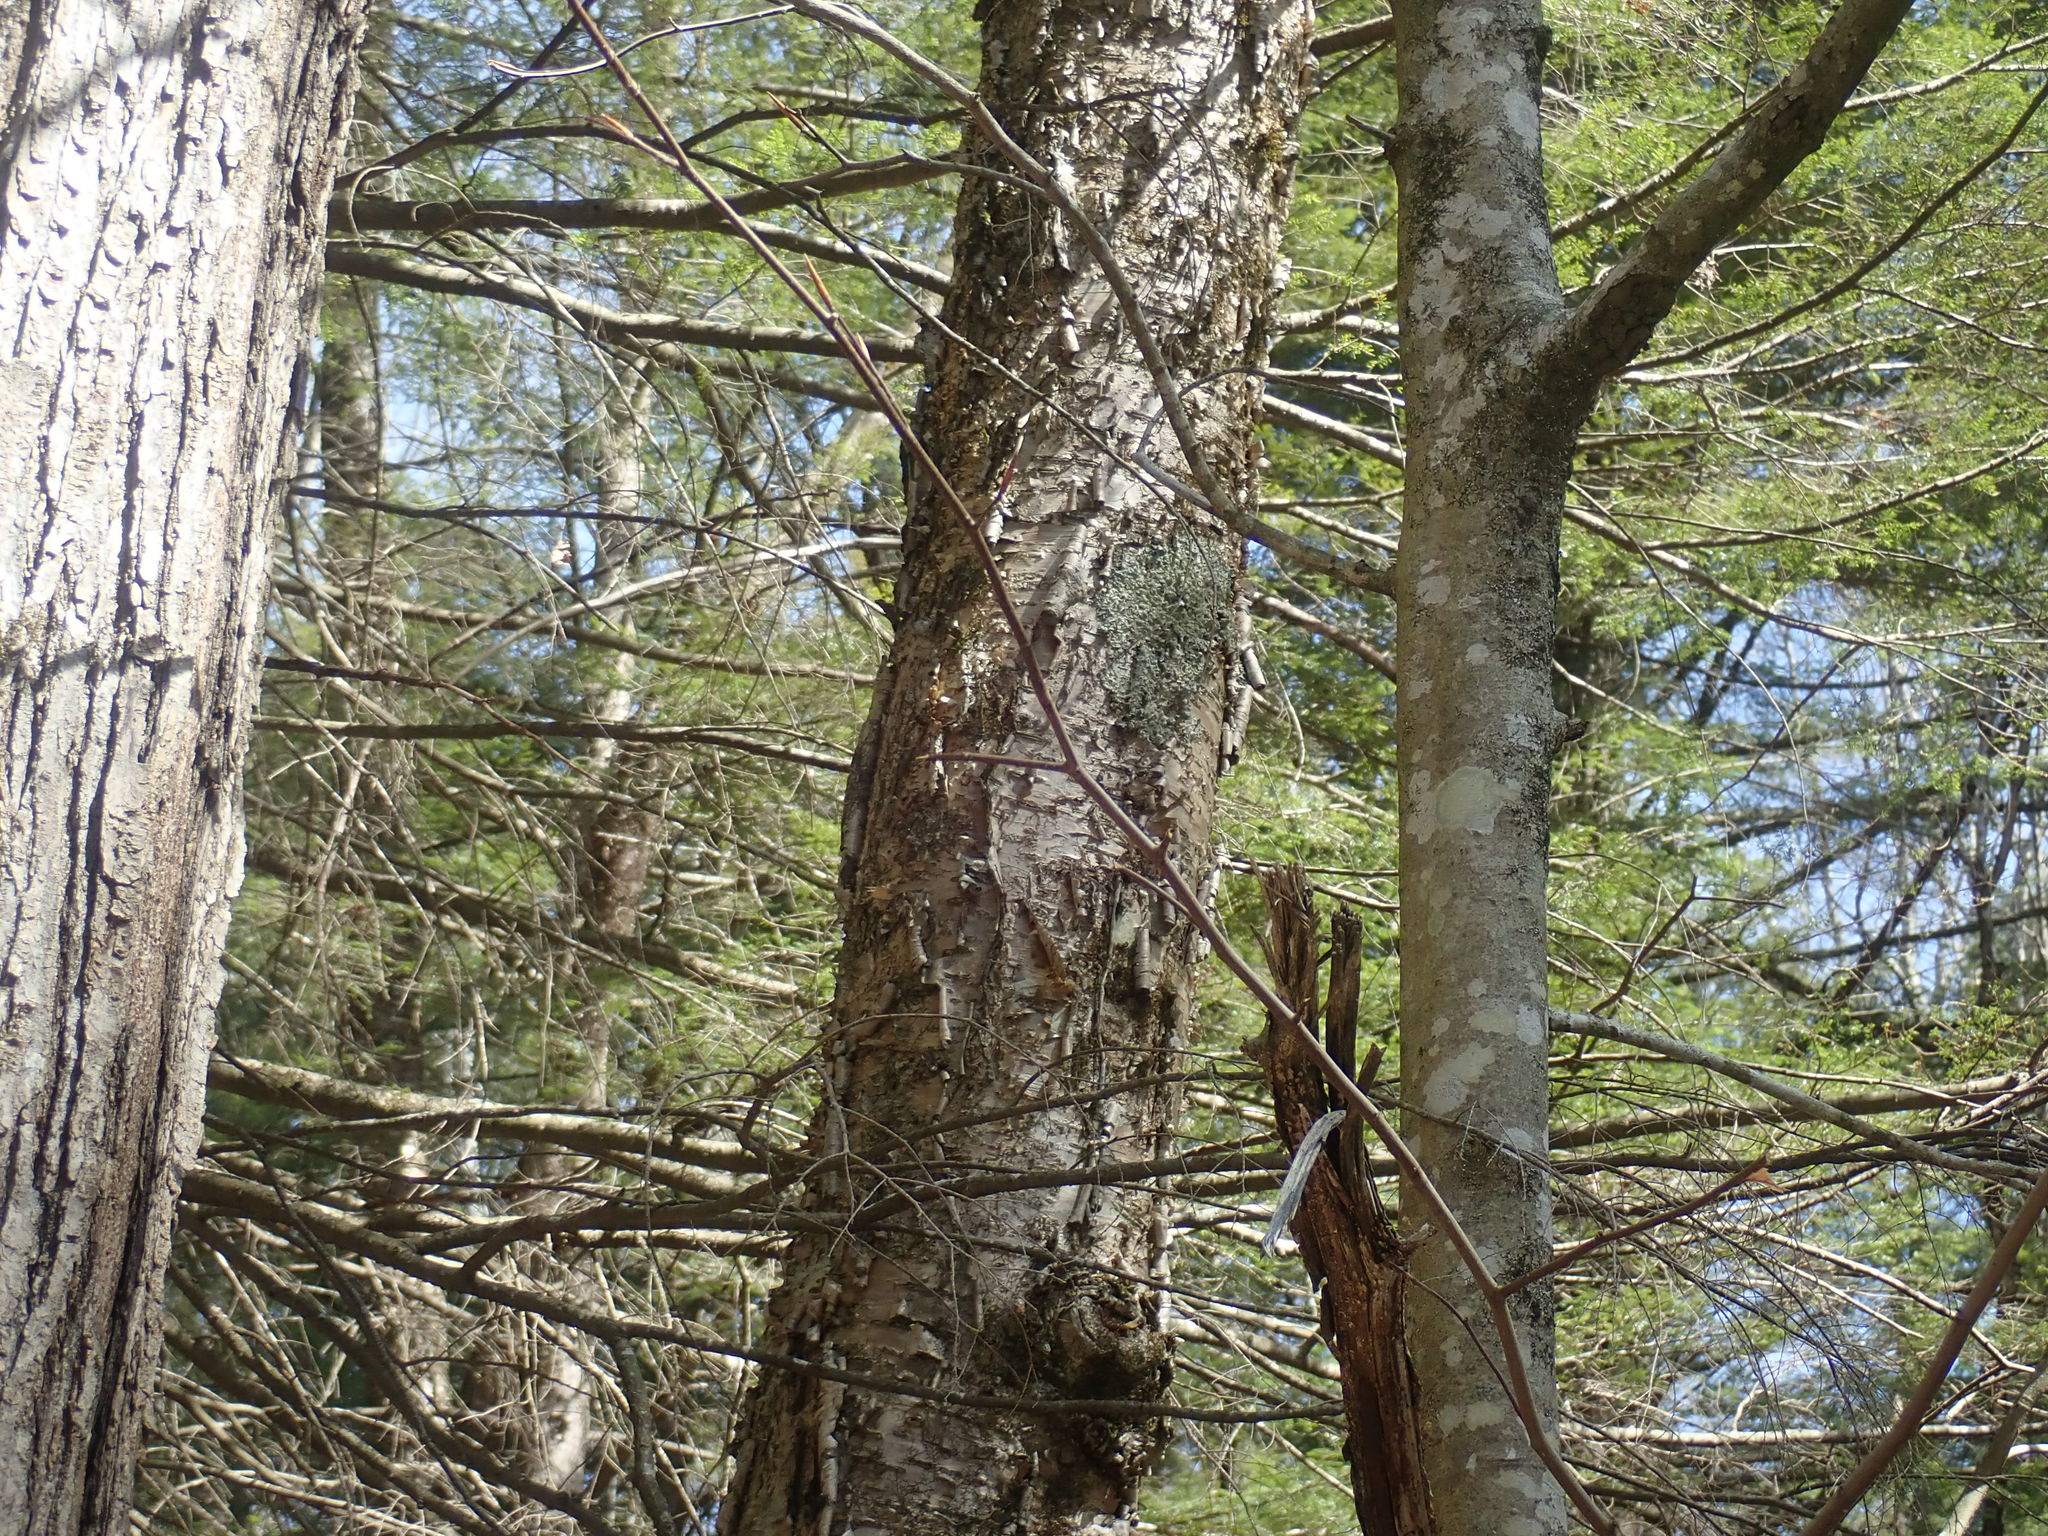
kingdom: Plantae
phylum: Tracheophyta
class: Magnoliopsida
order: Fagales
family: Betulaceae
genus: Betula
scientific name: Betula alleghaniensis
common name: Yellow birch
